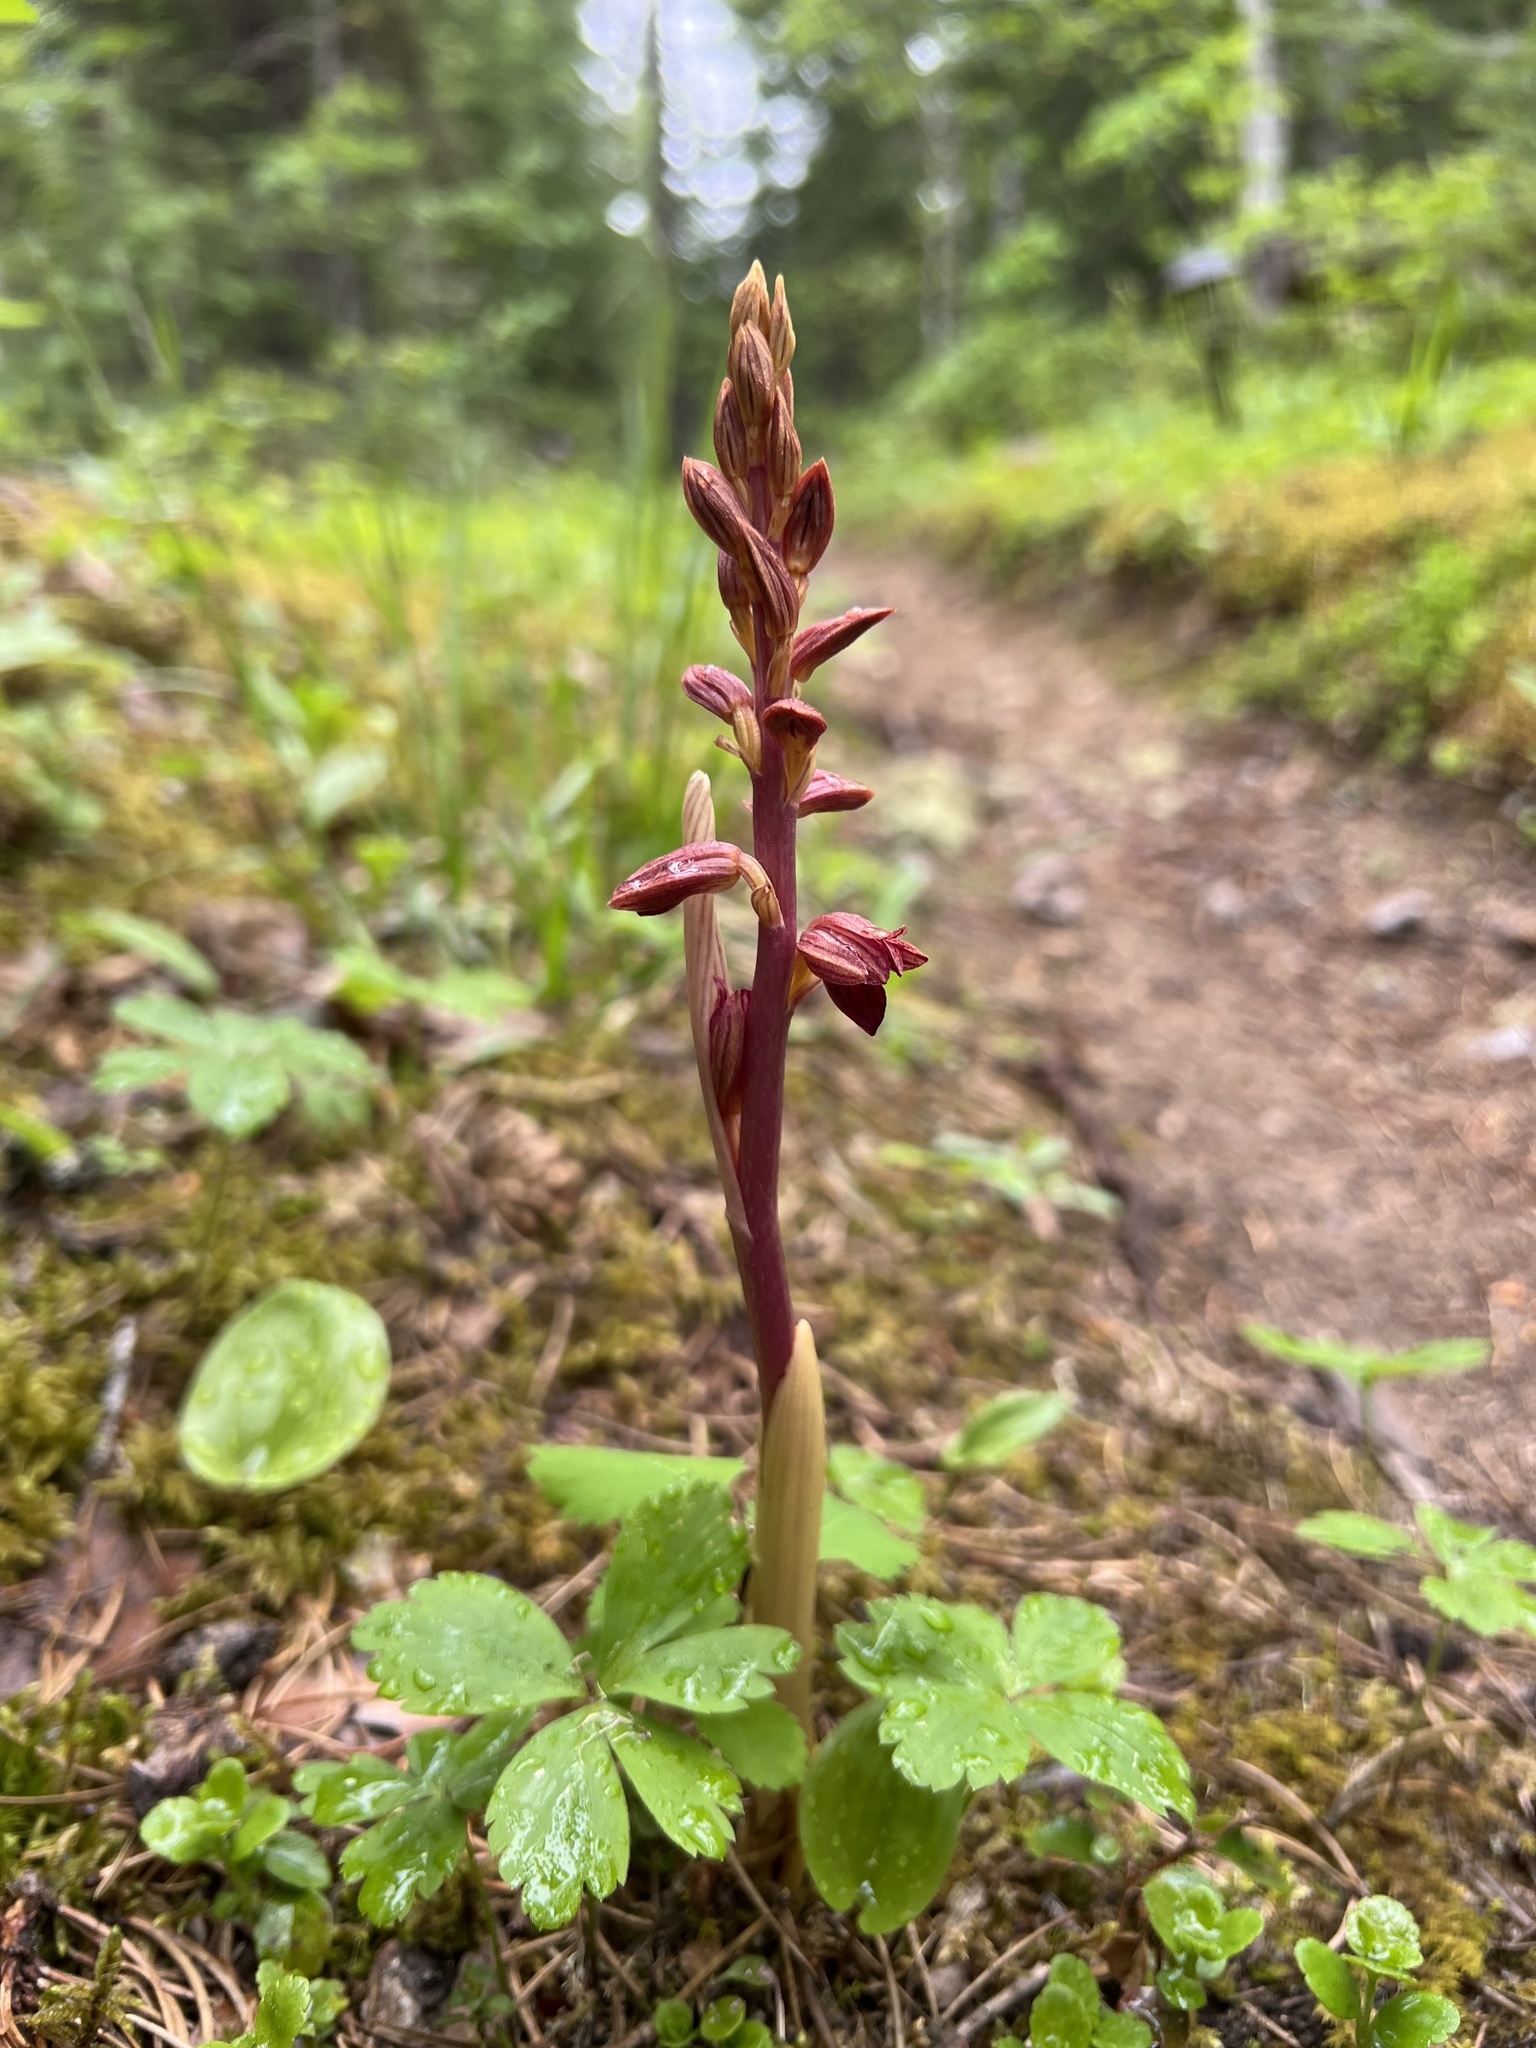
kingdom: Plantae
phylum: Tracheophyta
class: Liliopsida
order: Asparagales
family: Orchidaceae
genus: Corallorhiza
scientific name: Corallorhiza striata
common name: Hooded coralroot
